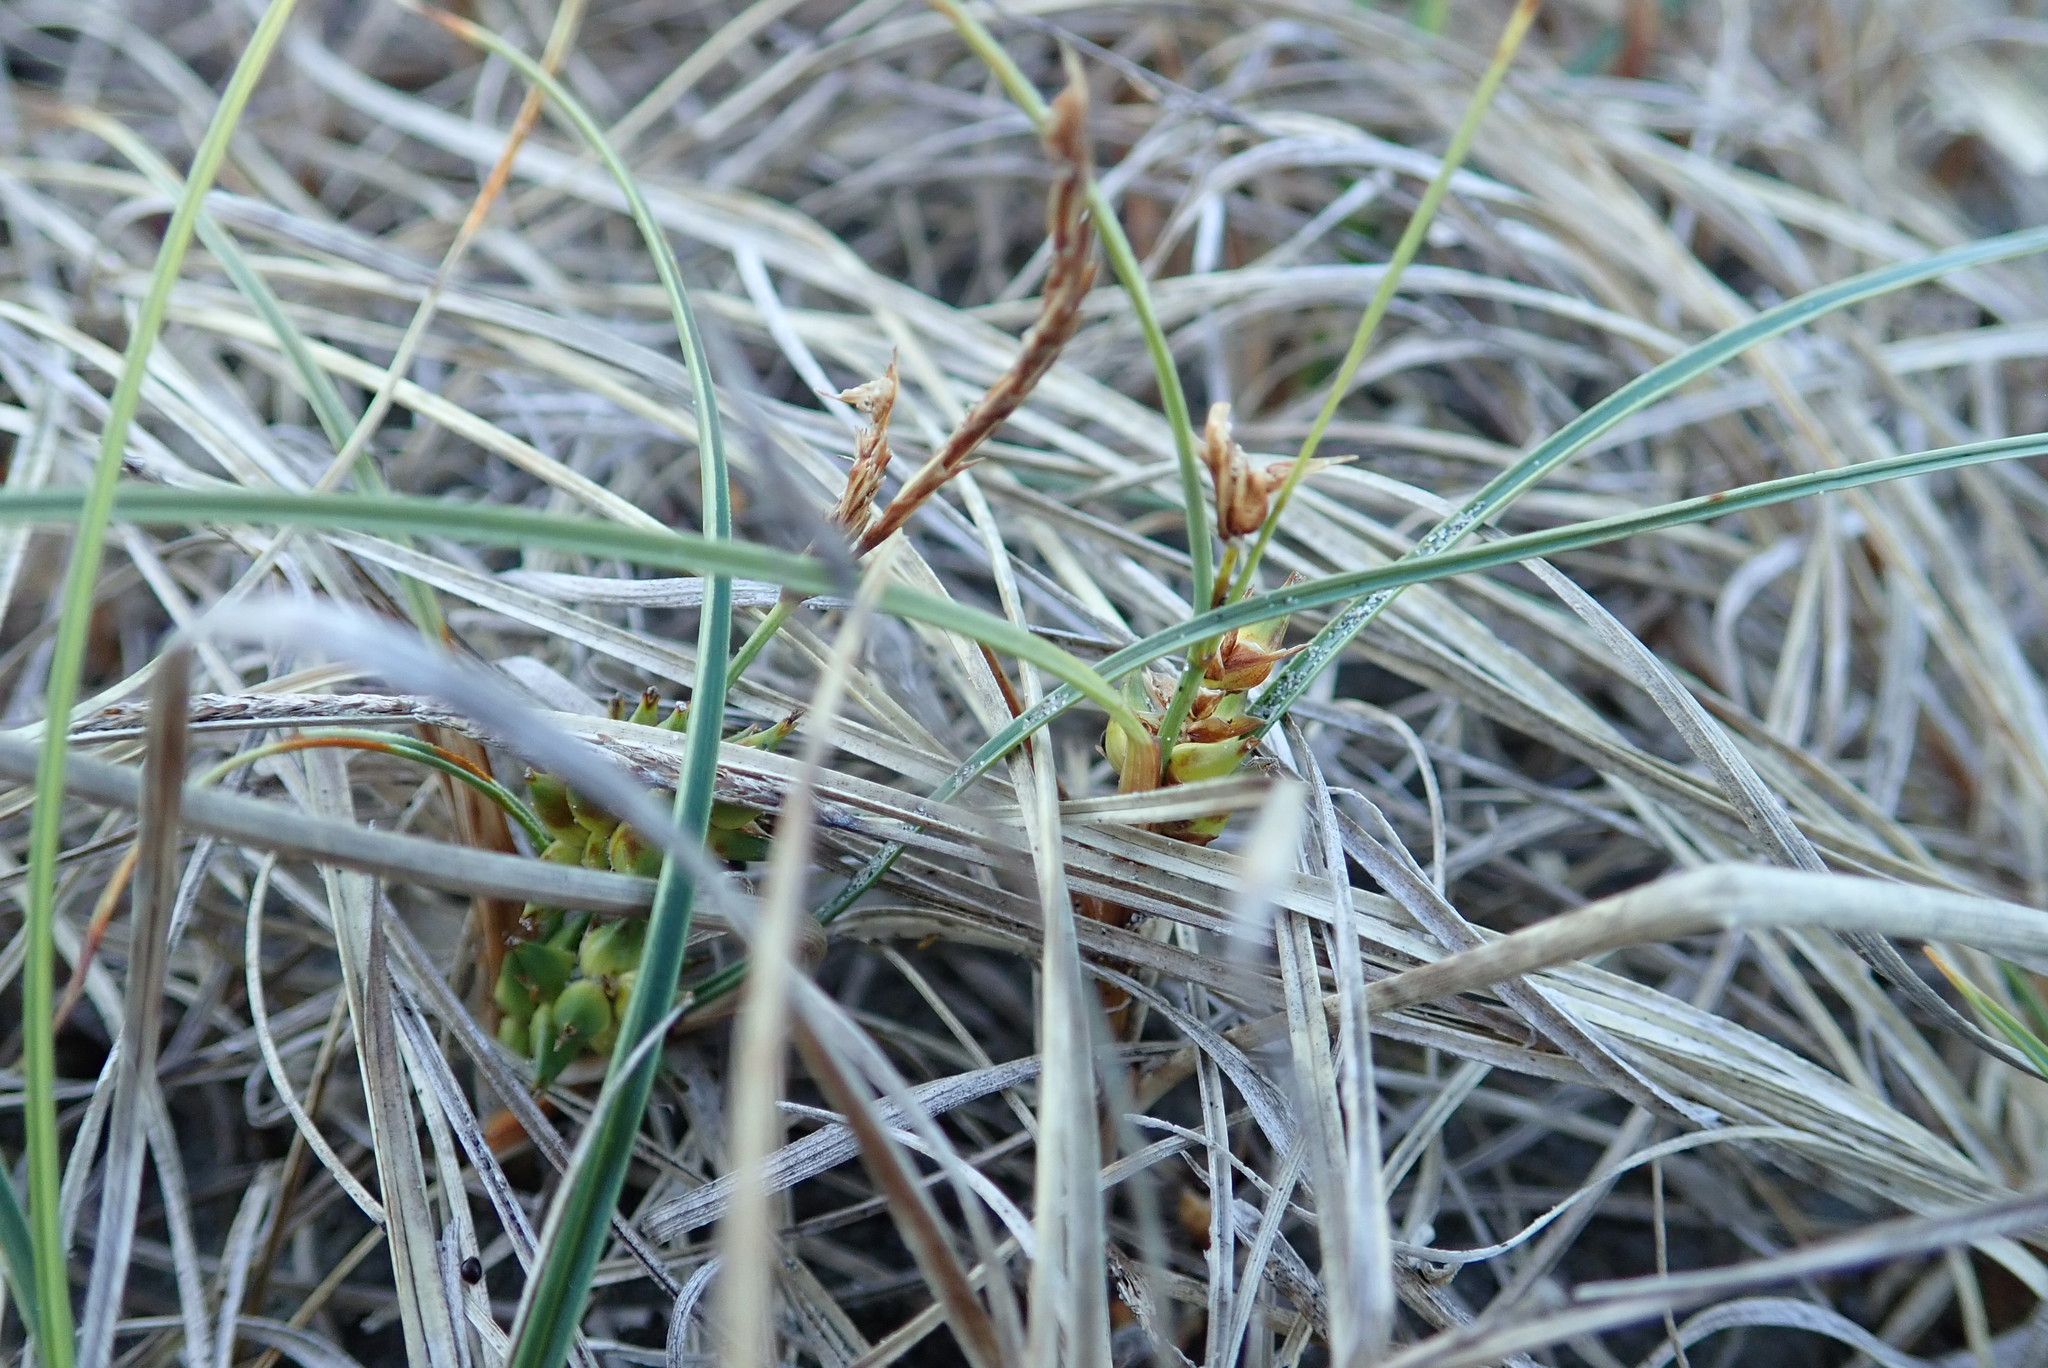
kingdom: Plantae
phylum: Tracheophyta
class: Liliopsida
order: Poales
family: Cyperaceae
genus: Carex
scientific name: Carex pumila
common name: Dwarf sedge
